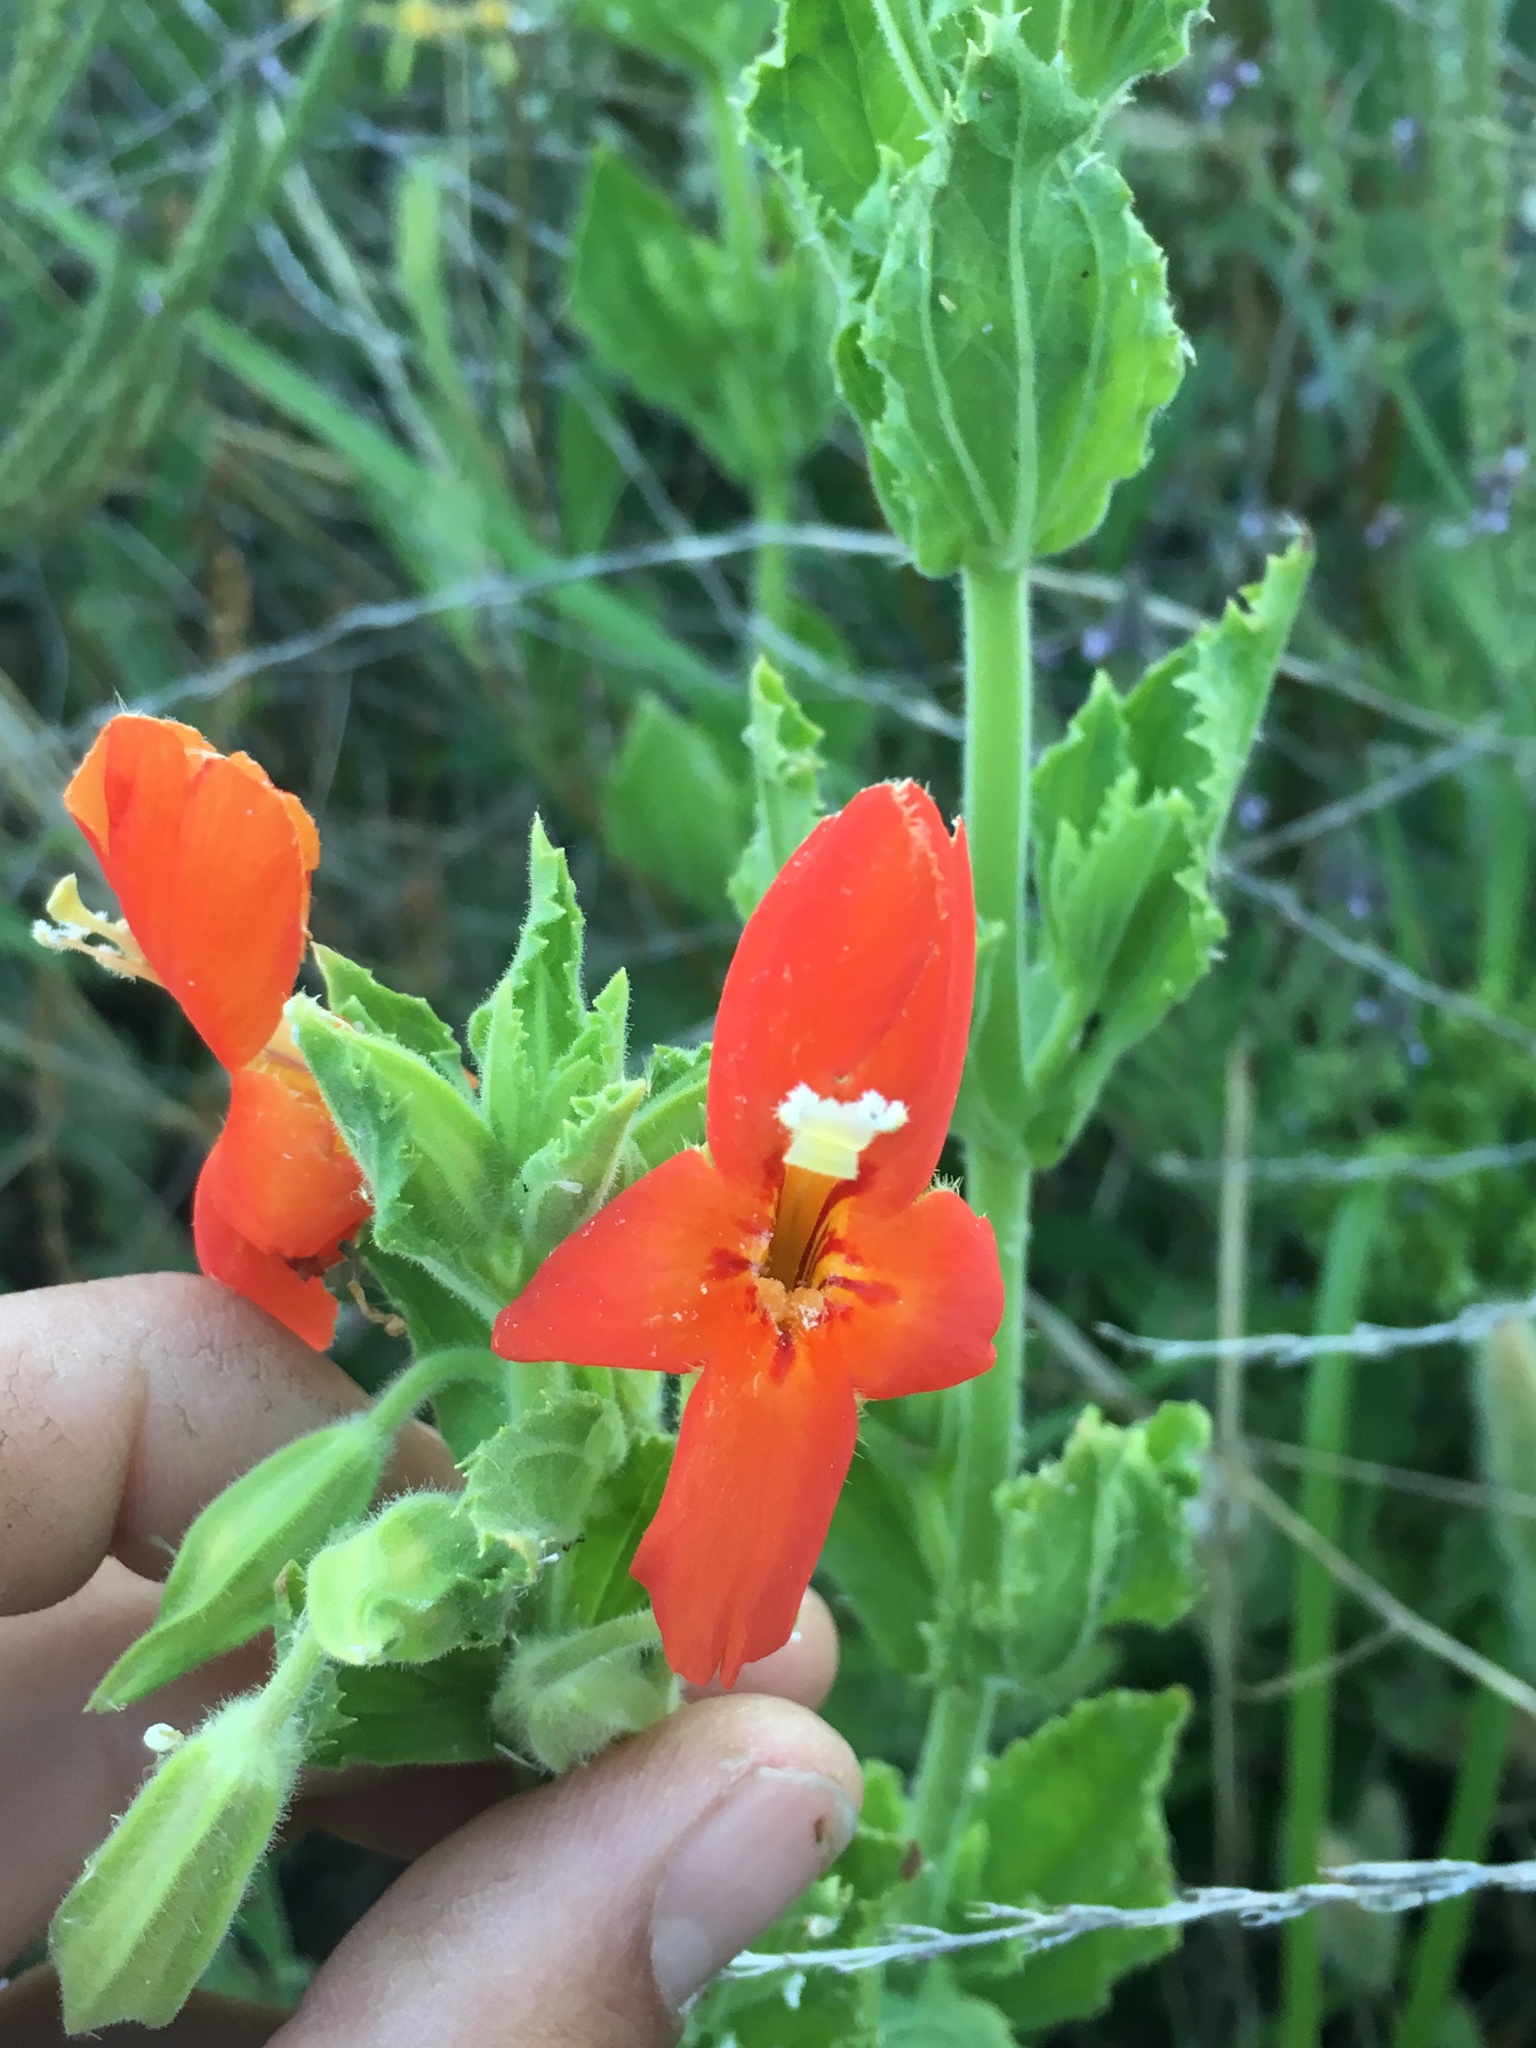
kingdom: Plantae
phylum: Tracheophyta
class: Magnoliopsida
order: Lamiales
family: Phrymaceae
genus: Erythranthe
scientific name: Erythranthe cardinalis
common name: Scarlet monkey-flower
